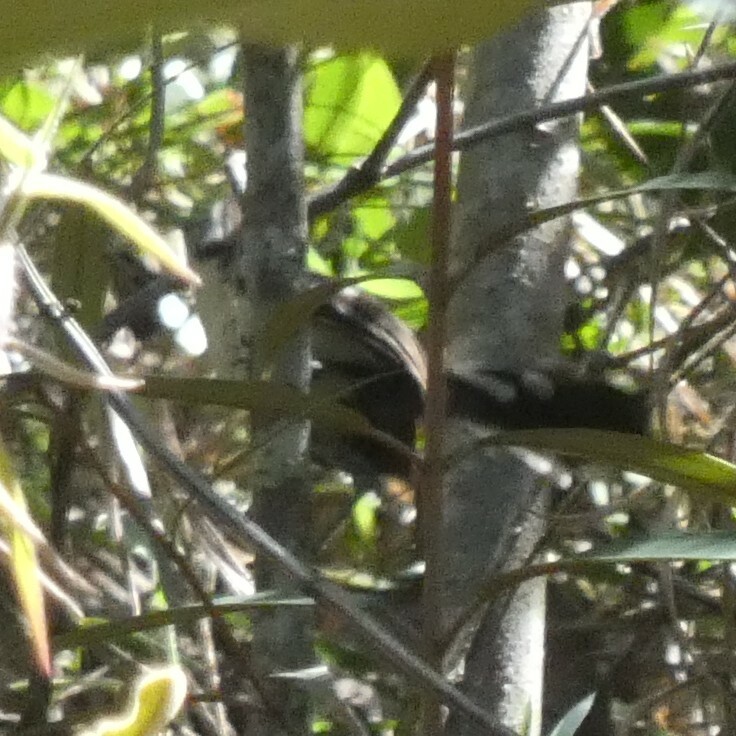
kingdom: Animalia
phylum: Chordata
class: Aves
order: Passeriformes
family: Thamnophilidae
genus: Myrmeciza
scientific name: Myrmeciza loricata
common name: White-bibbed antbird
